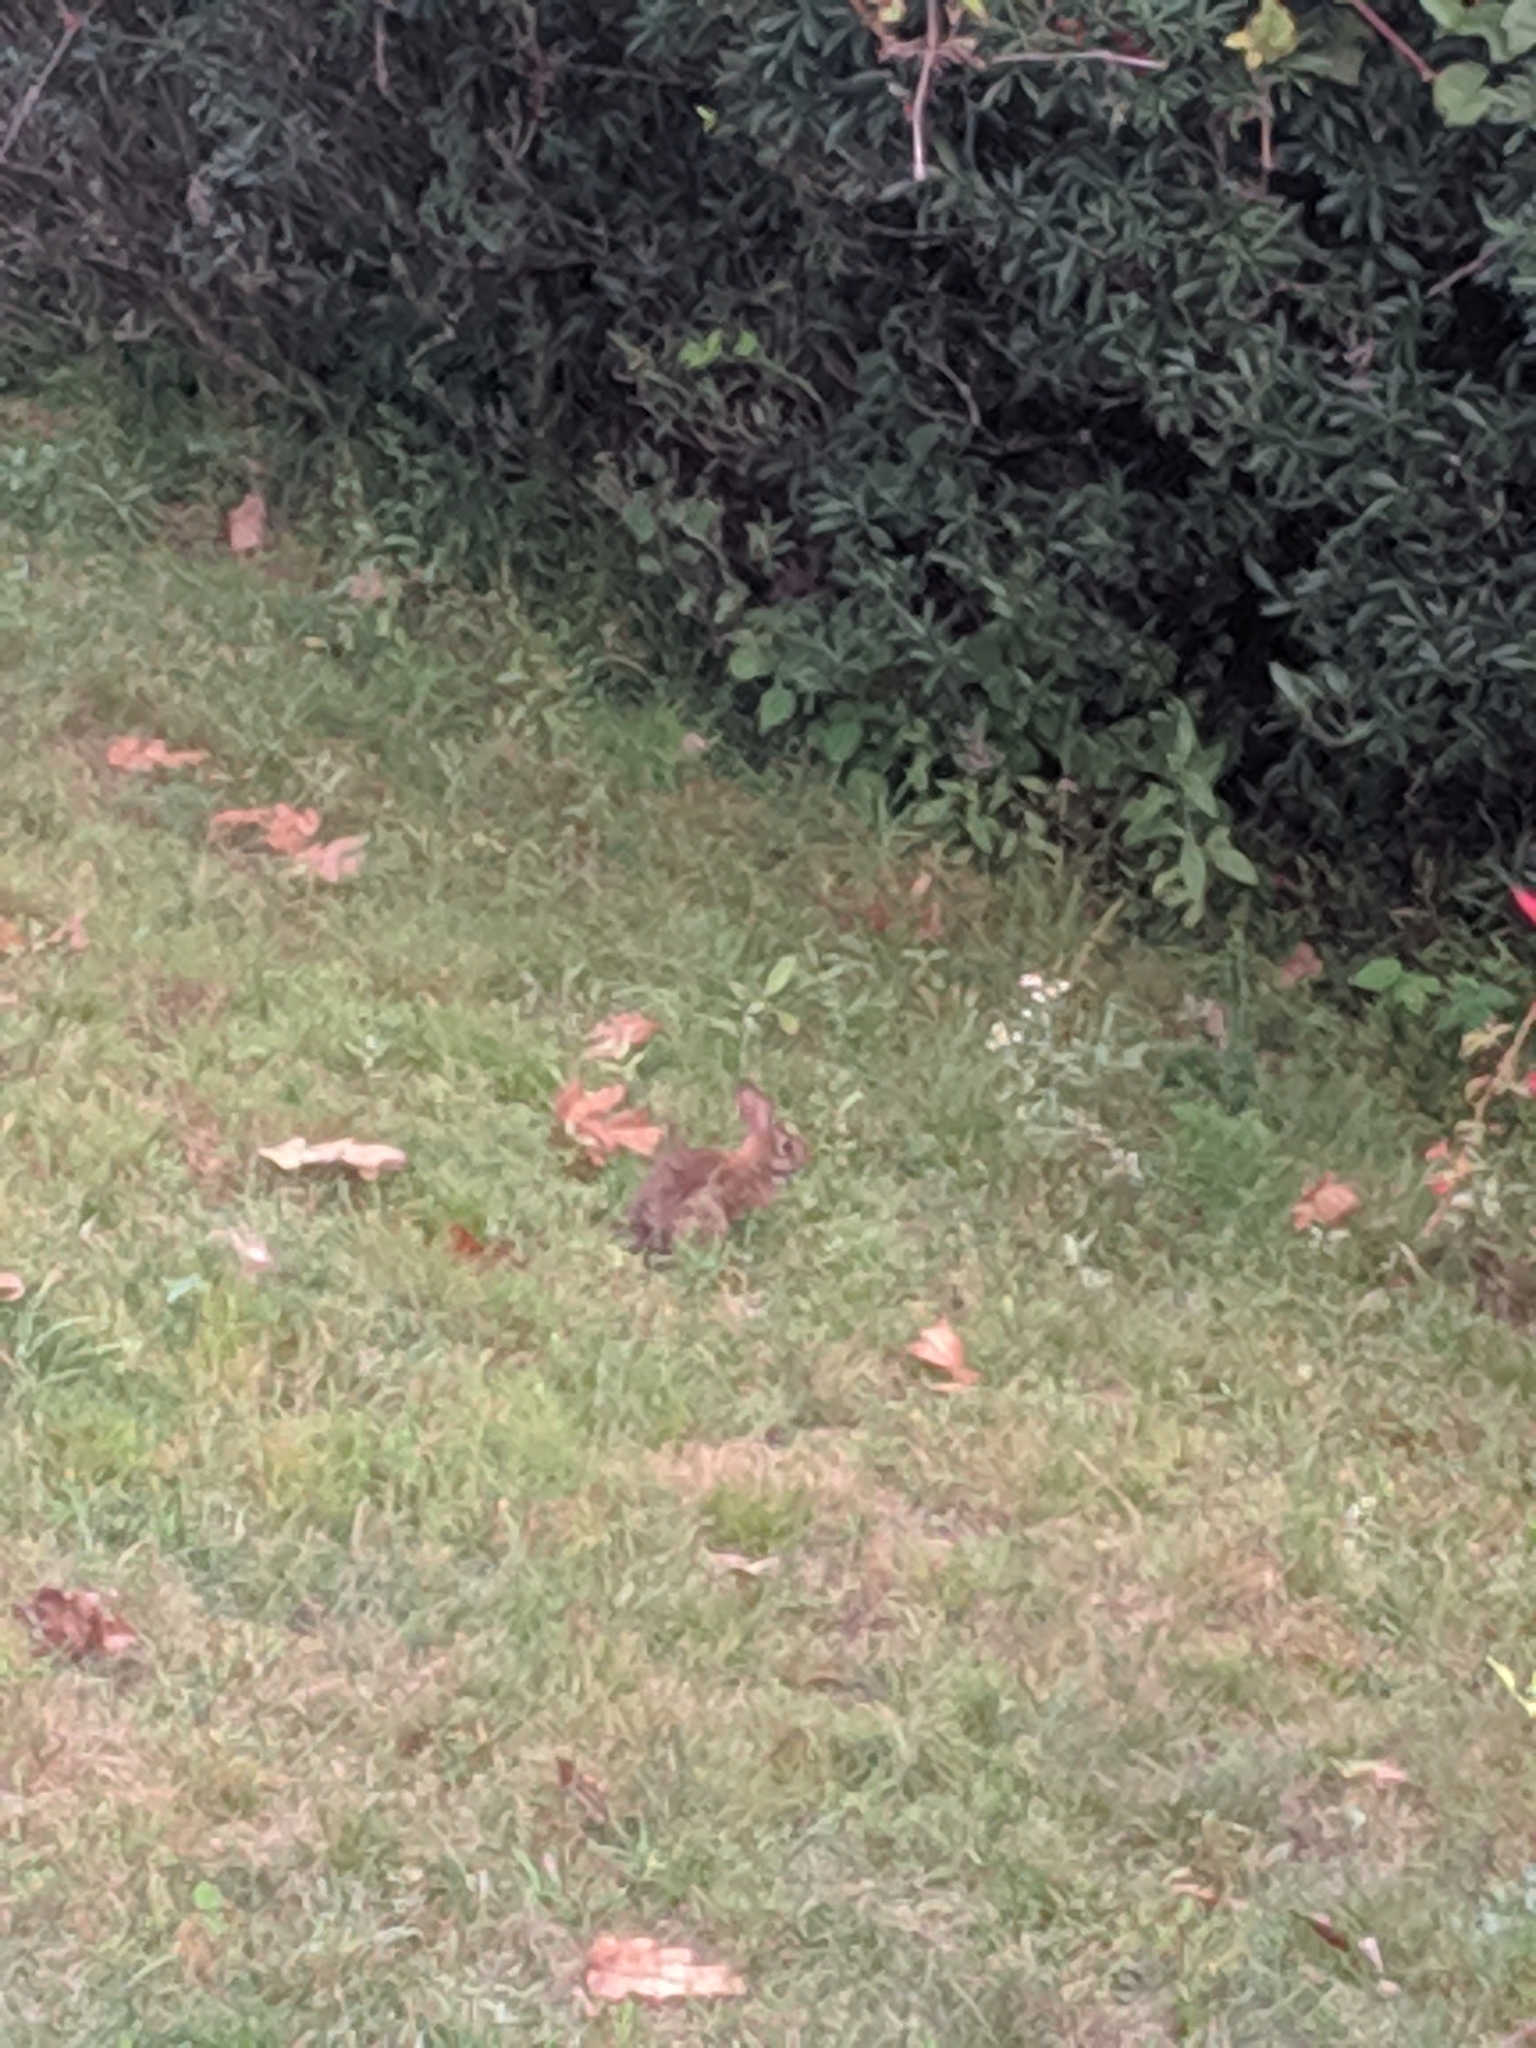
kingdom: Animalia
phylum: Chordata
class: Mammalia
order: Lagomorpha
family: Leporidae
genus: Sylvilagus
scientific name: Sylvilagus floridanus
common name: Eastern cottontail
